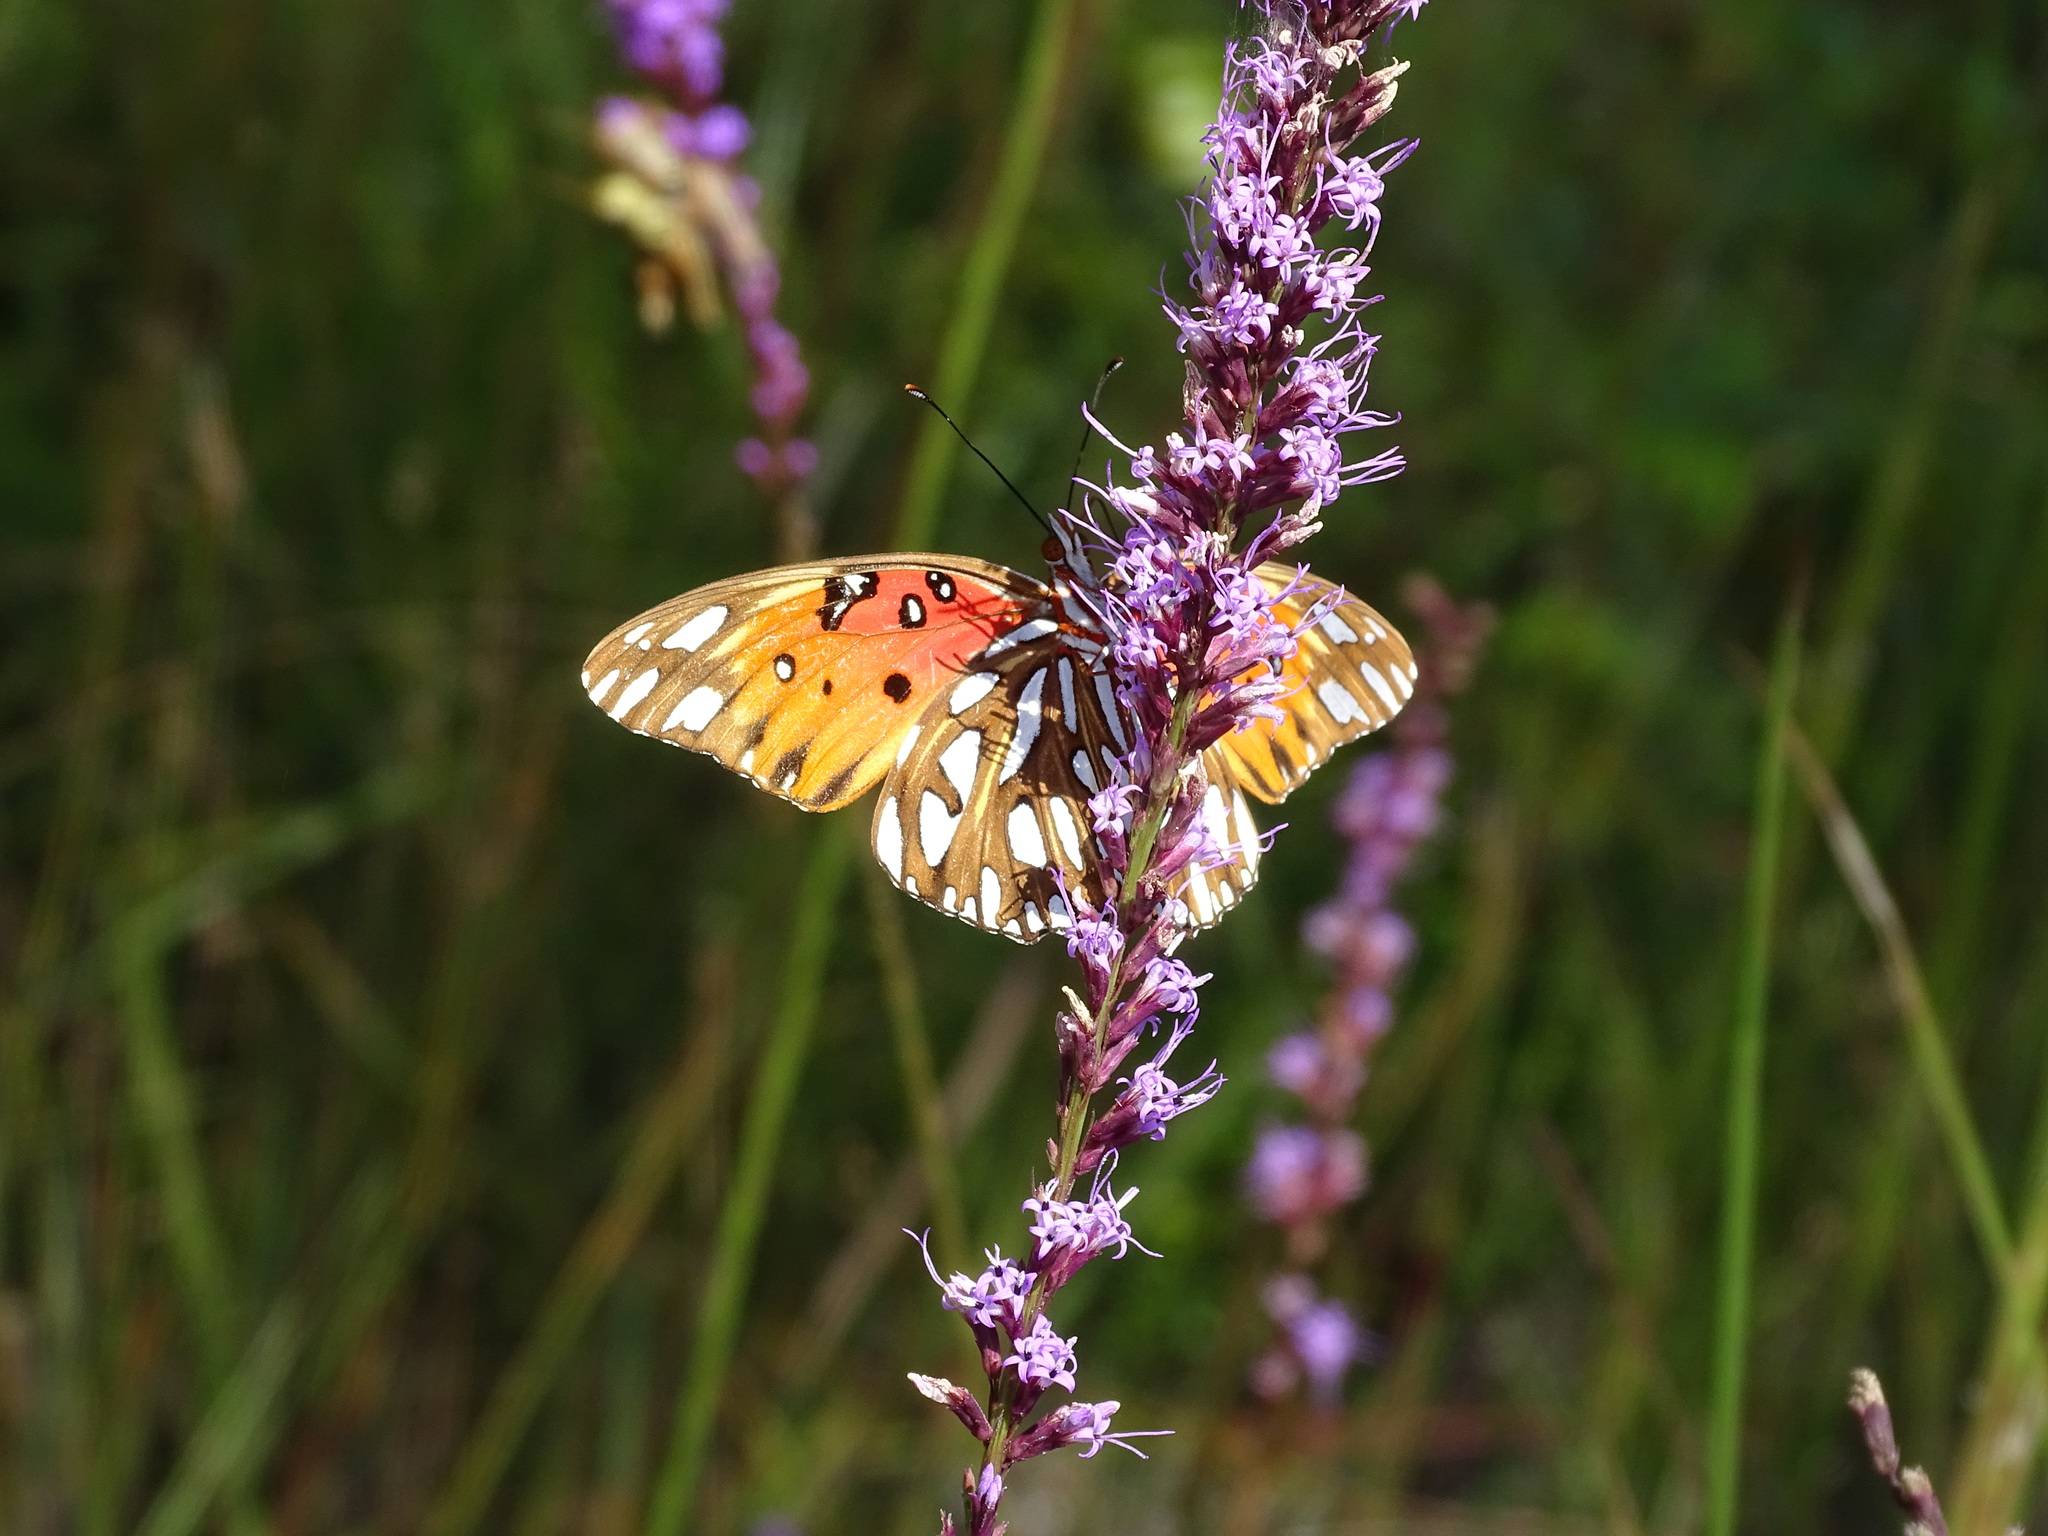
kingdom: Animalia
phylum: Arthropoda
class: Insecta
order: Lepidoptera
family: Nymphalidae
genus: Dione
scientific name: Dione vanillae
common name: Gulf fritillary
